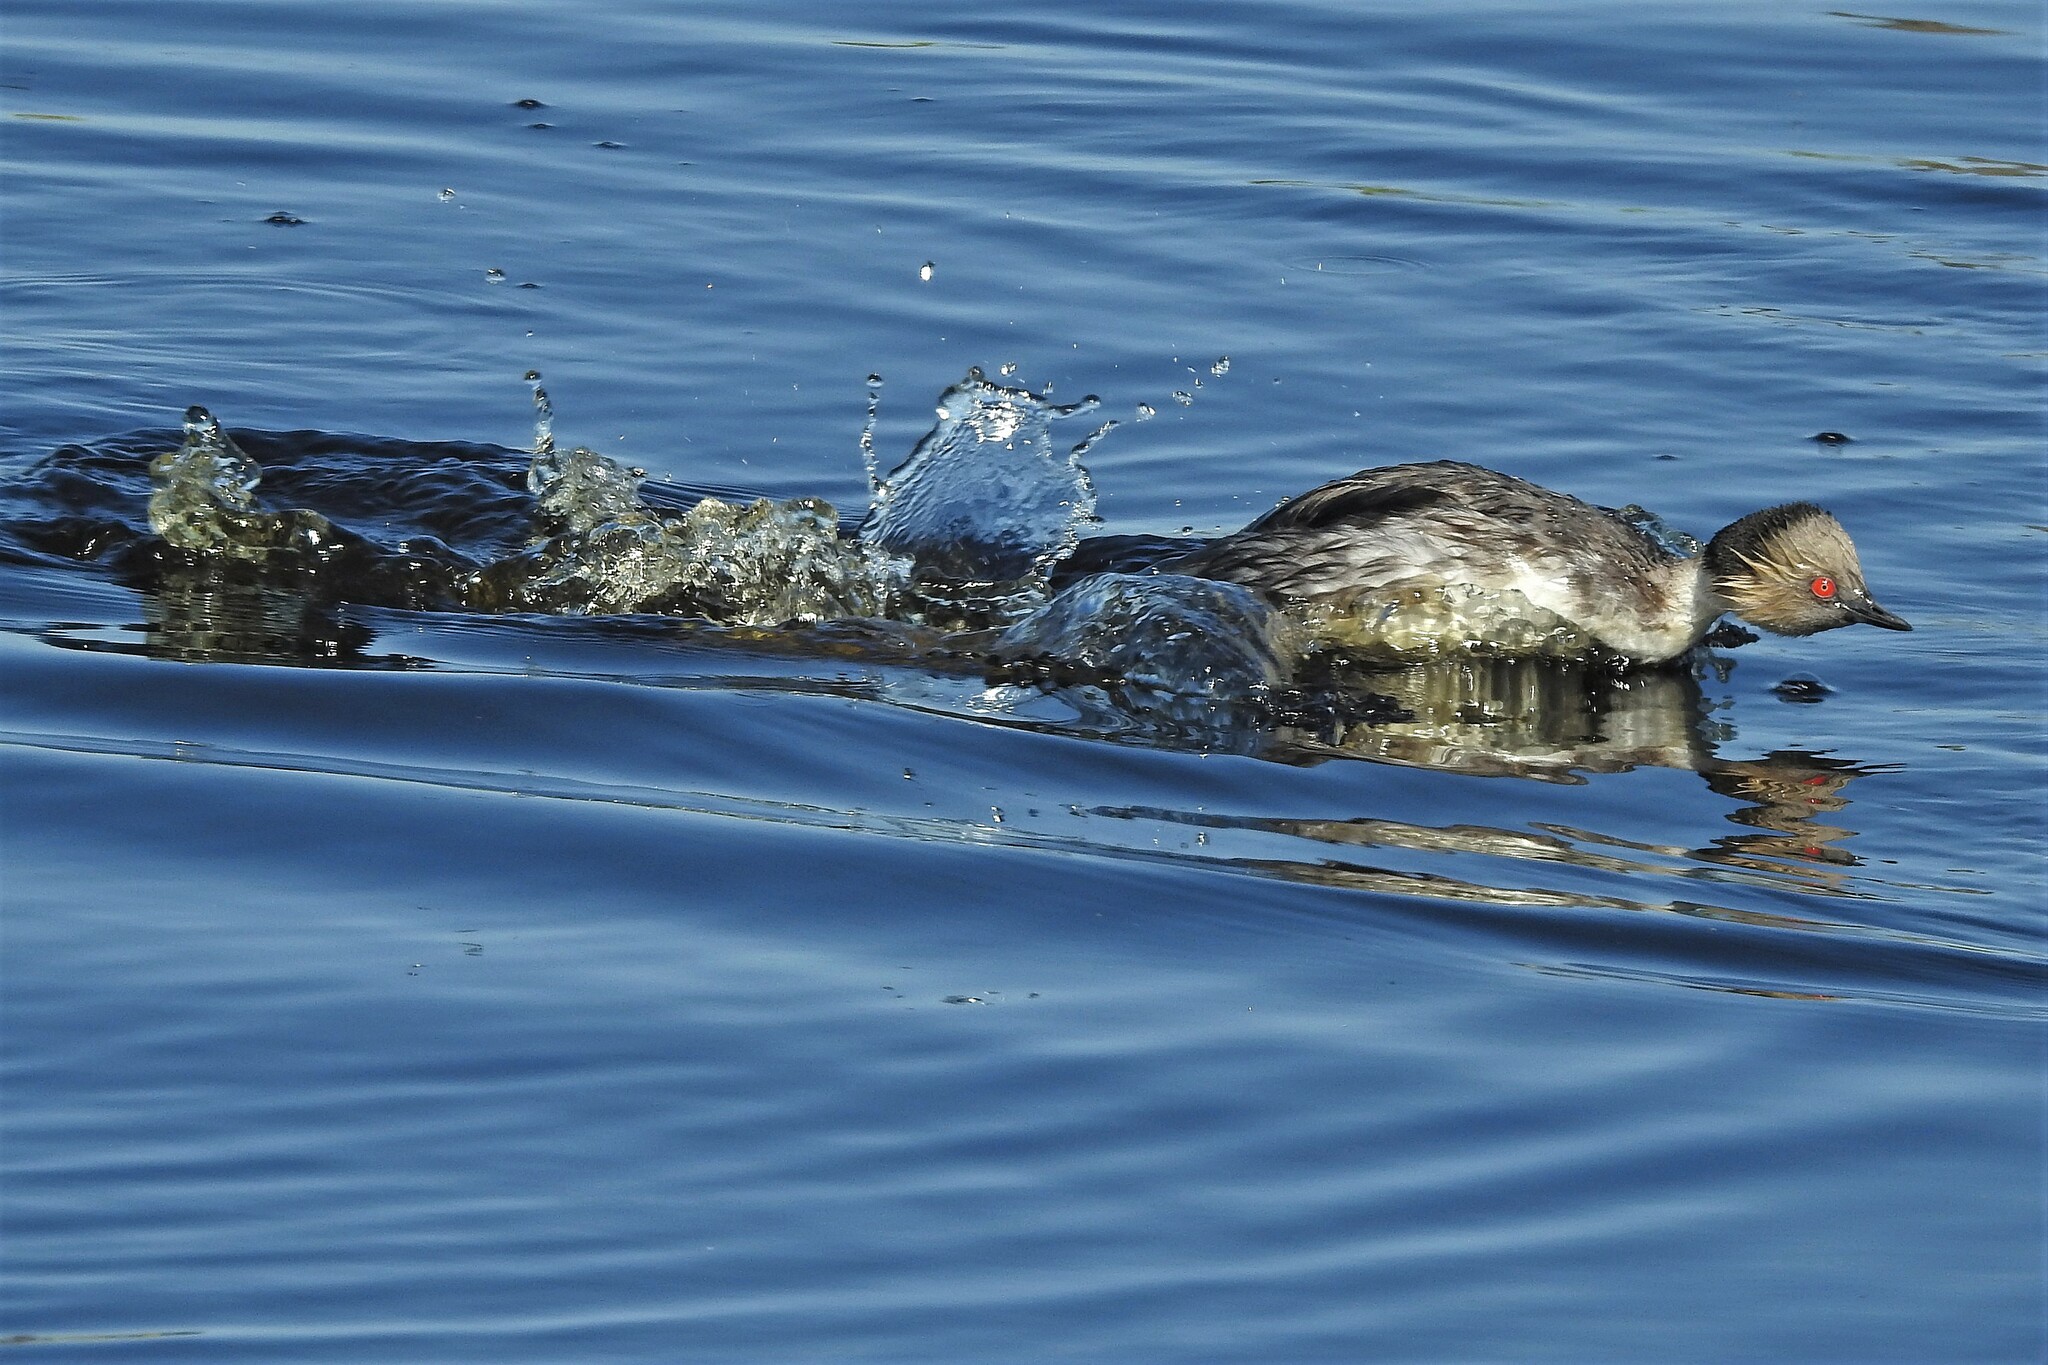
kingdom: Animalia
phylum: Chordata
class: Aves
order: Podicipediformes
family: Podicipedidae
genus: Podiceps
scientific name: Podiceps occipitalis
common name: Silvery grebe
